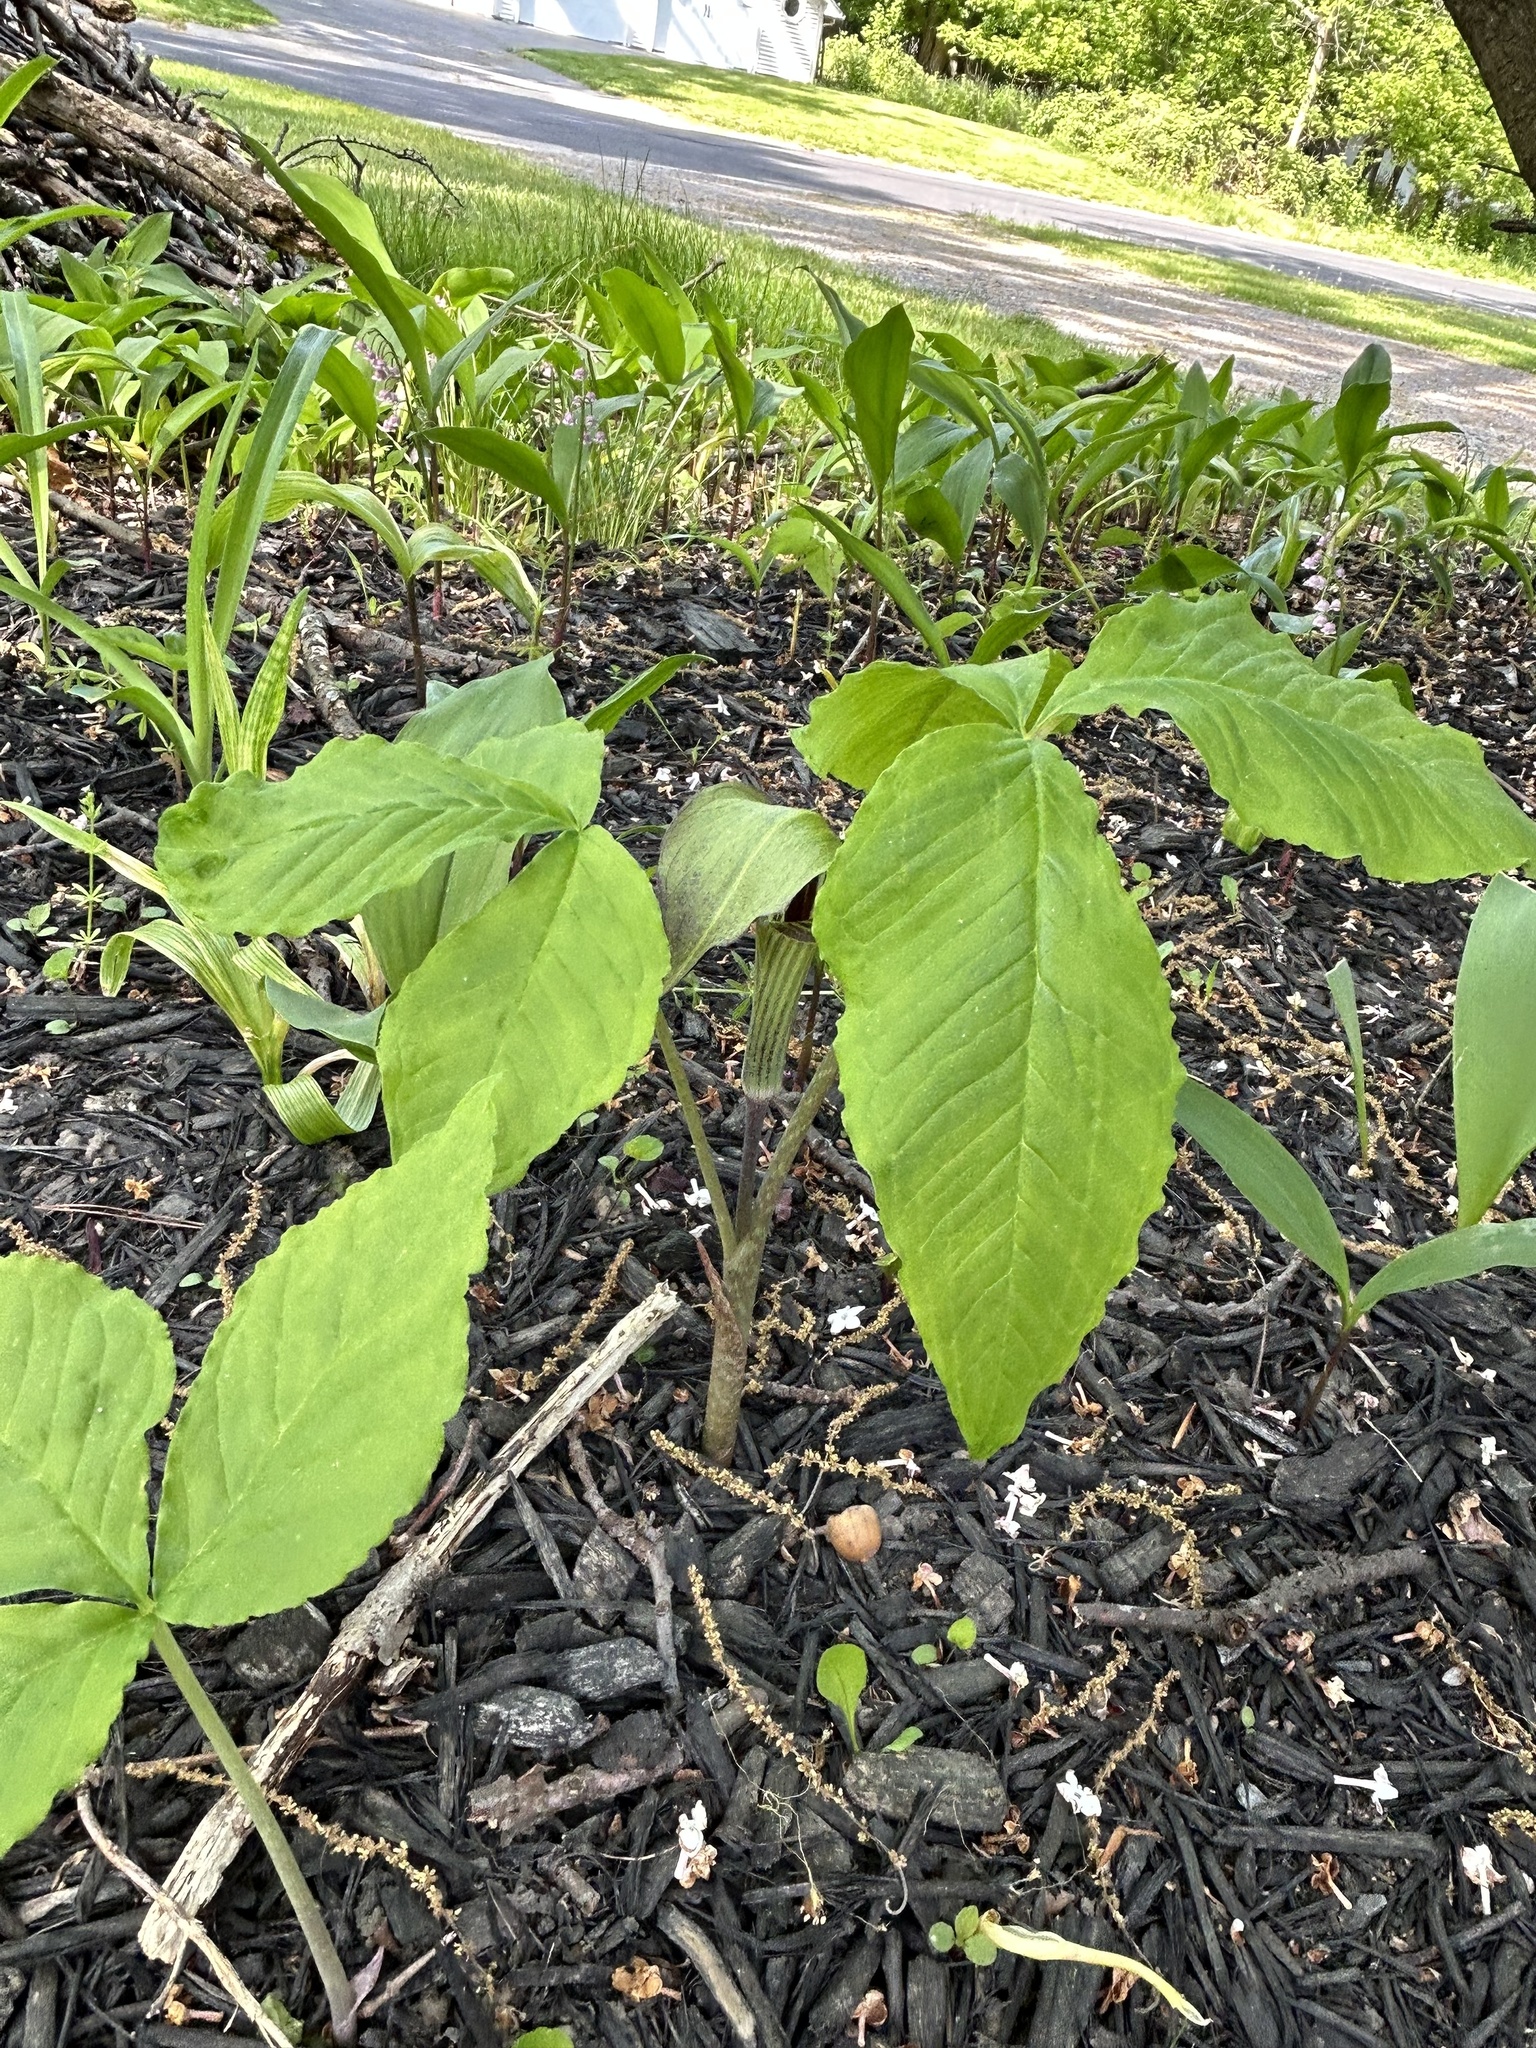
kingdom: Plantae
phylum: Tracheophyta
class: Liliopsida
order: Alismatales
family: Araceae
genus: Arisaema
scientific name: Arisaema triphyllum
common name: Jack-in-the-pulpit
